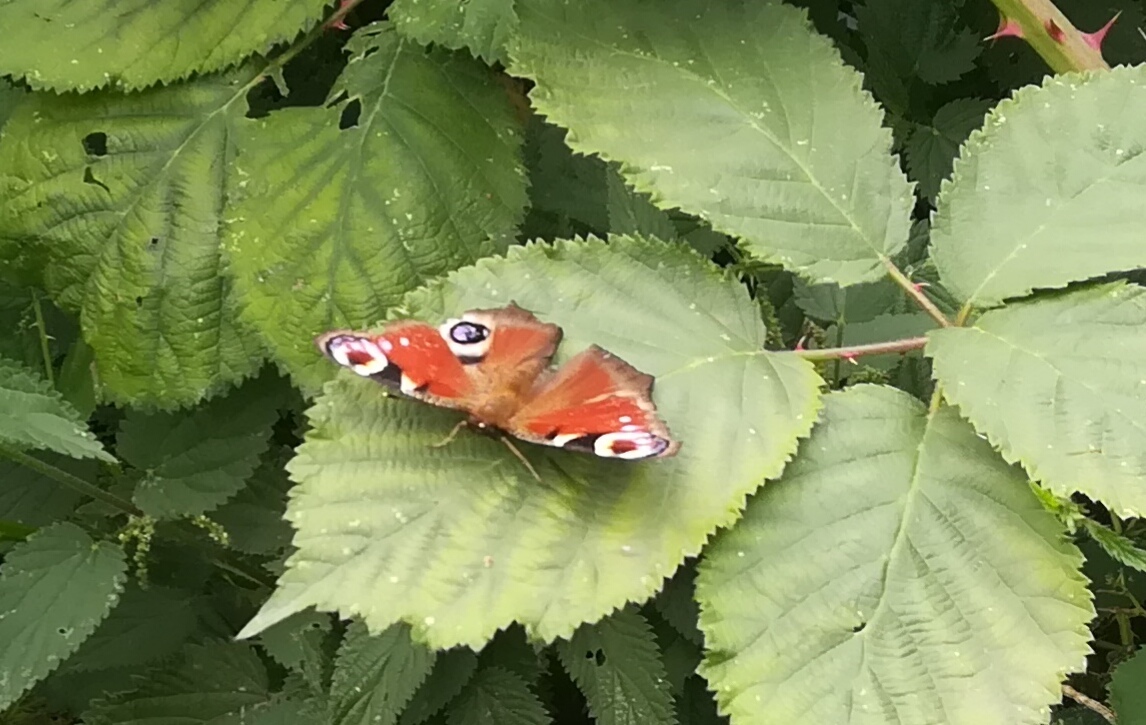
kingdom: Animalia
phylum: Arthropoda
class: Insecta
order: Lepidoptera
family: Nymphalidae
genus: Aglais
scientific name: Aglais io
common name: Peacock
